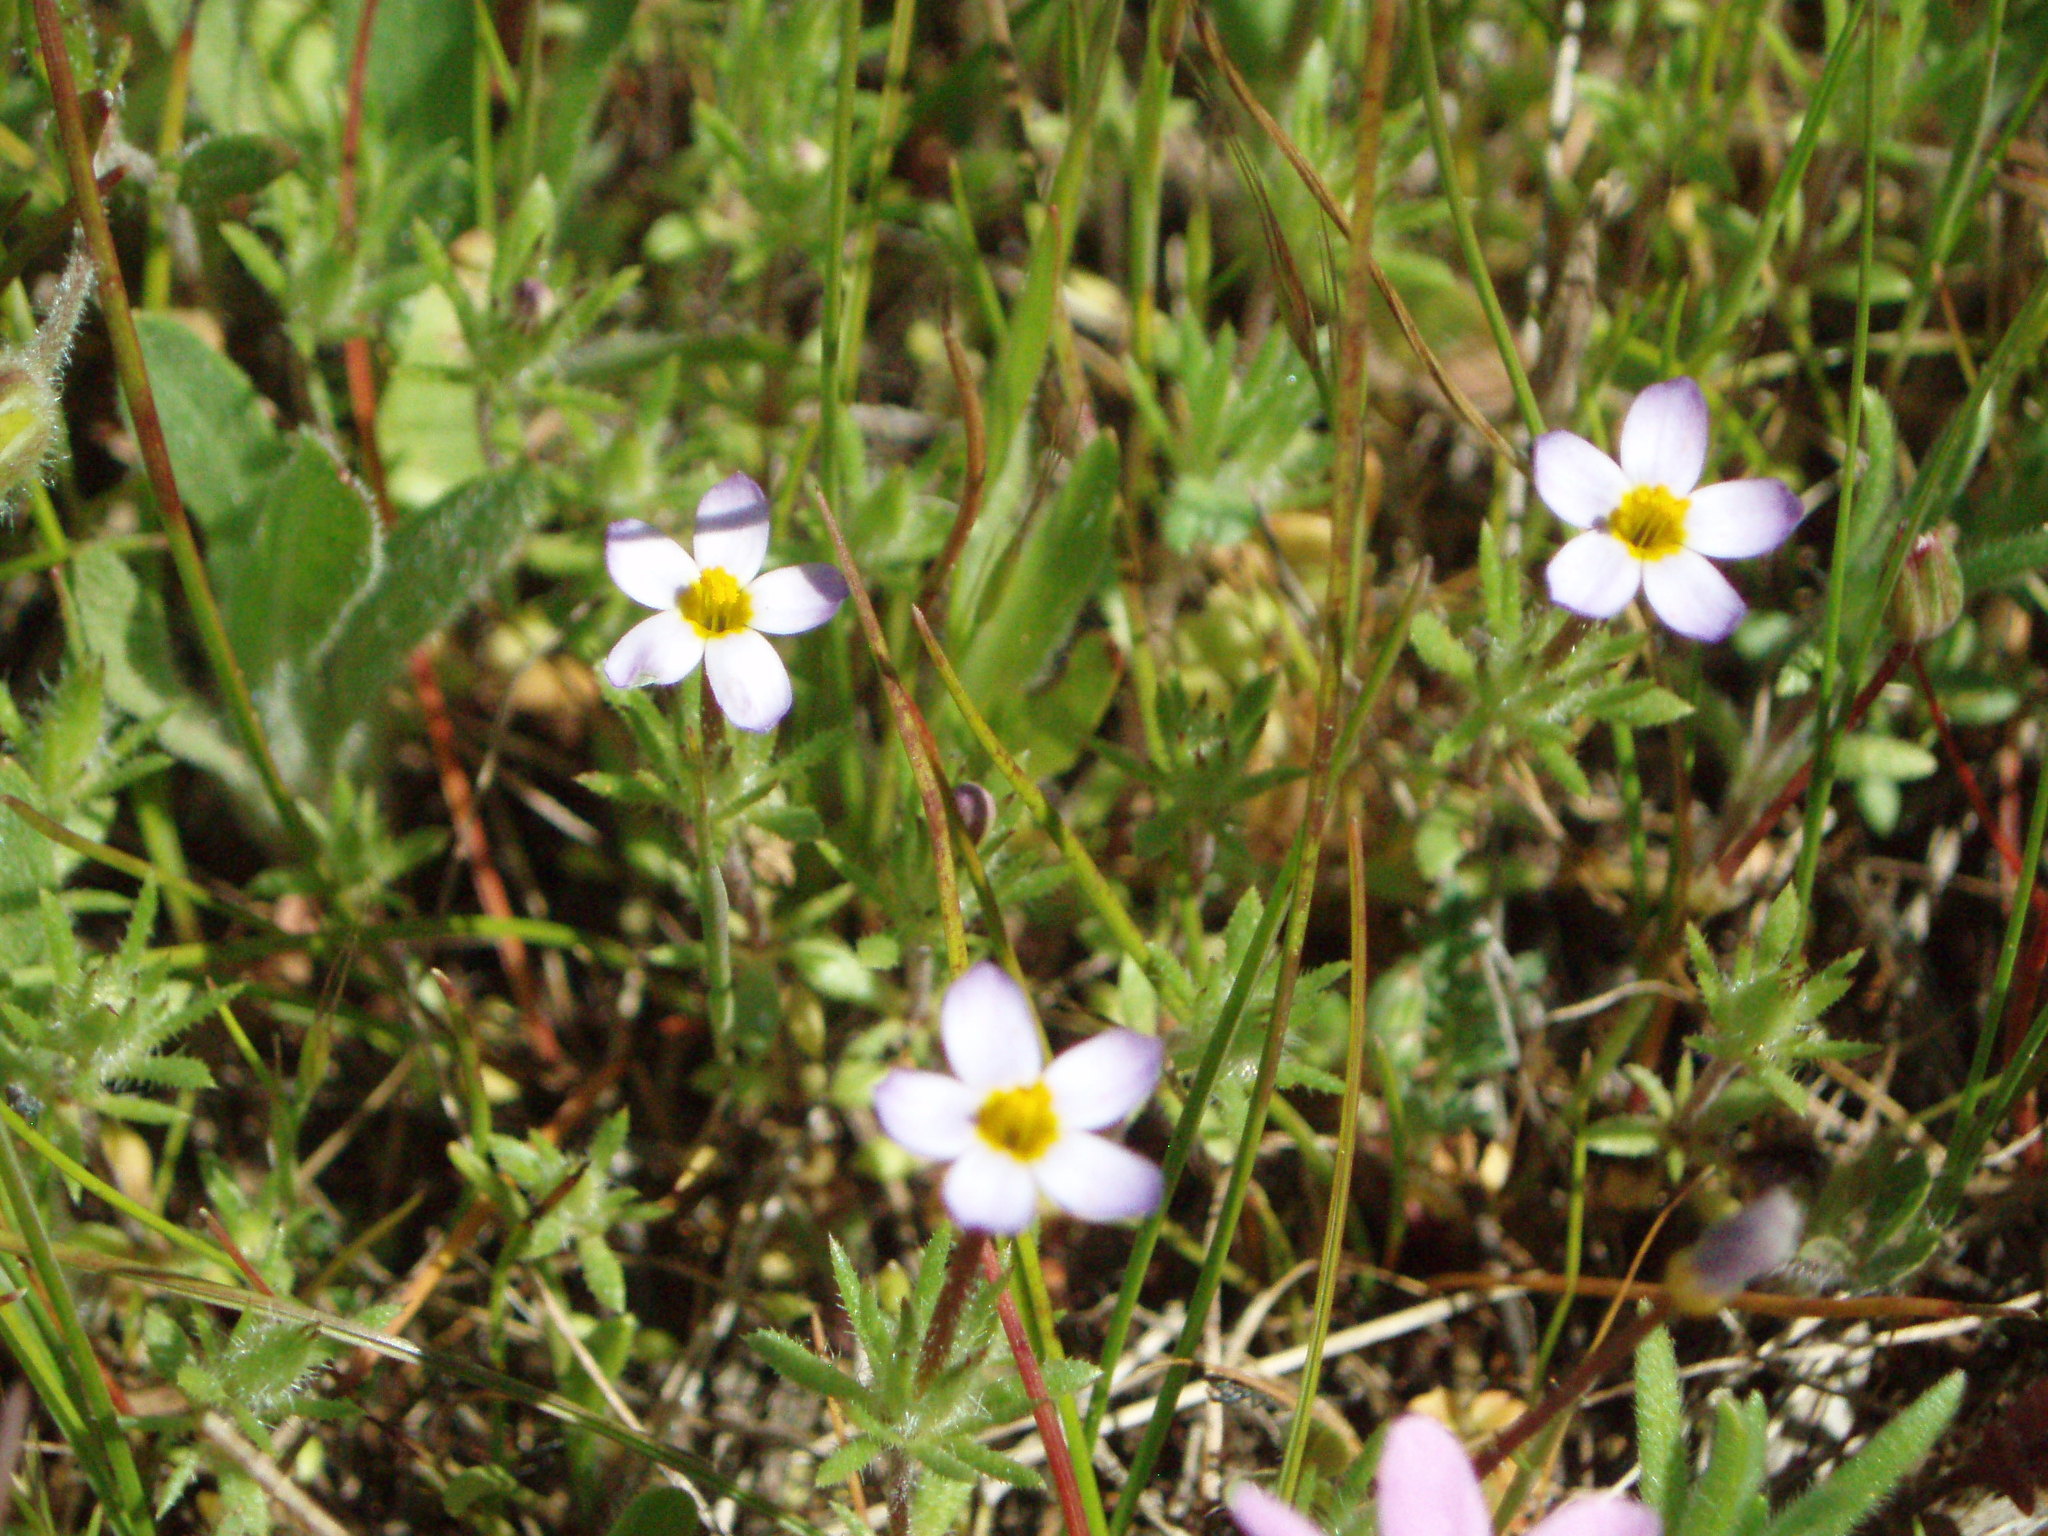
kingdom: Plantae
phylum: Tracheophyta
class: Magnoliopsida
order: Ericales
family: Polemoniaceae
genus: Leptosiphon
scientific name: Leptosiphon bicolor
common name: True babystars
